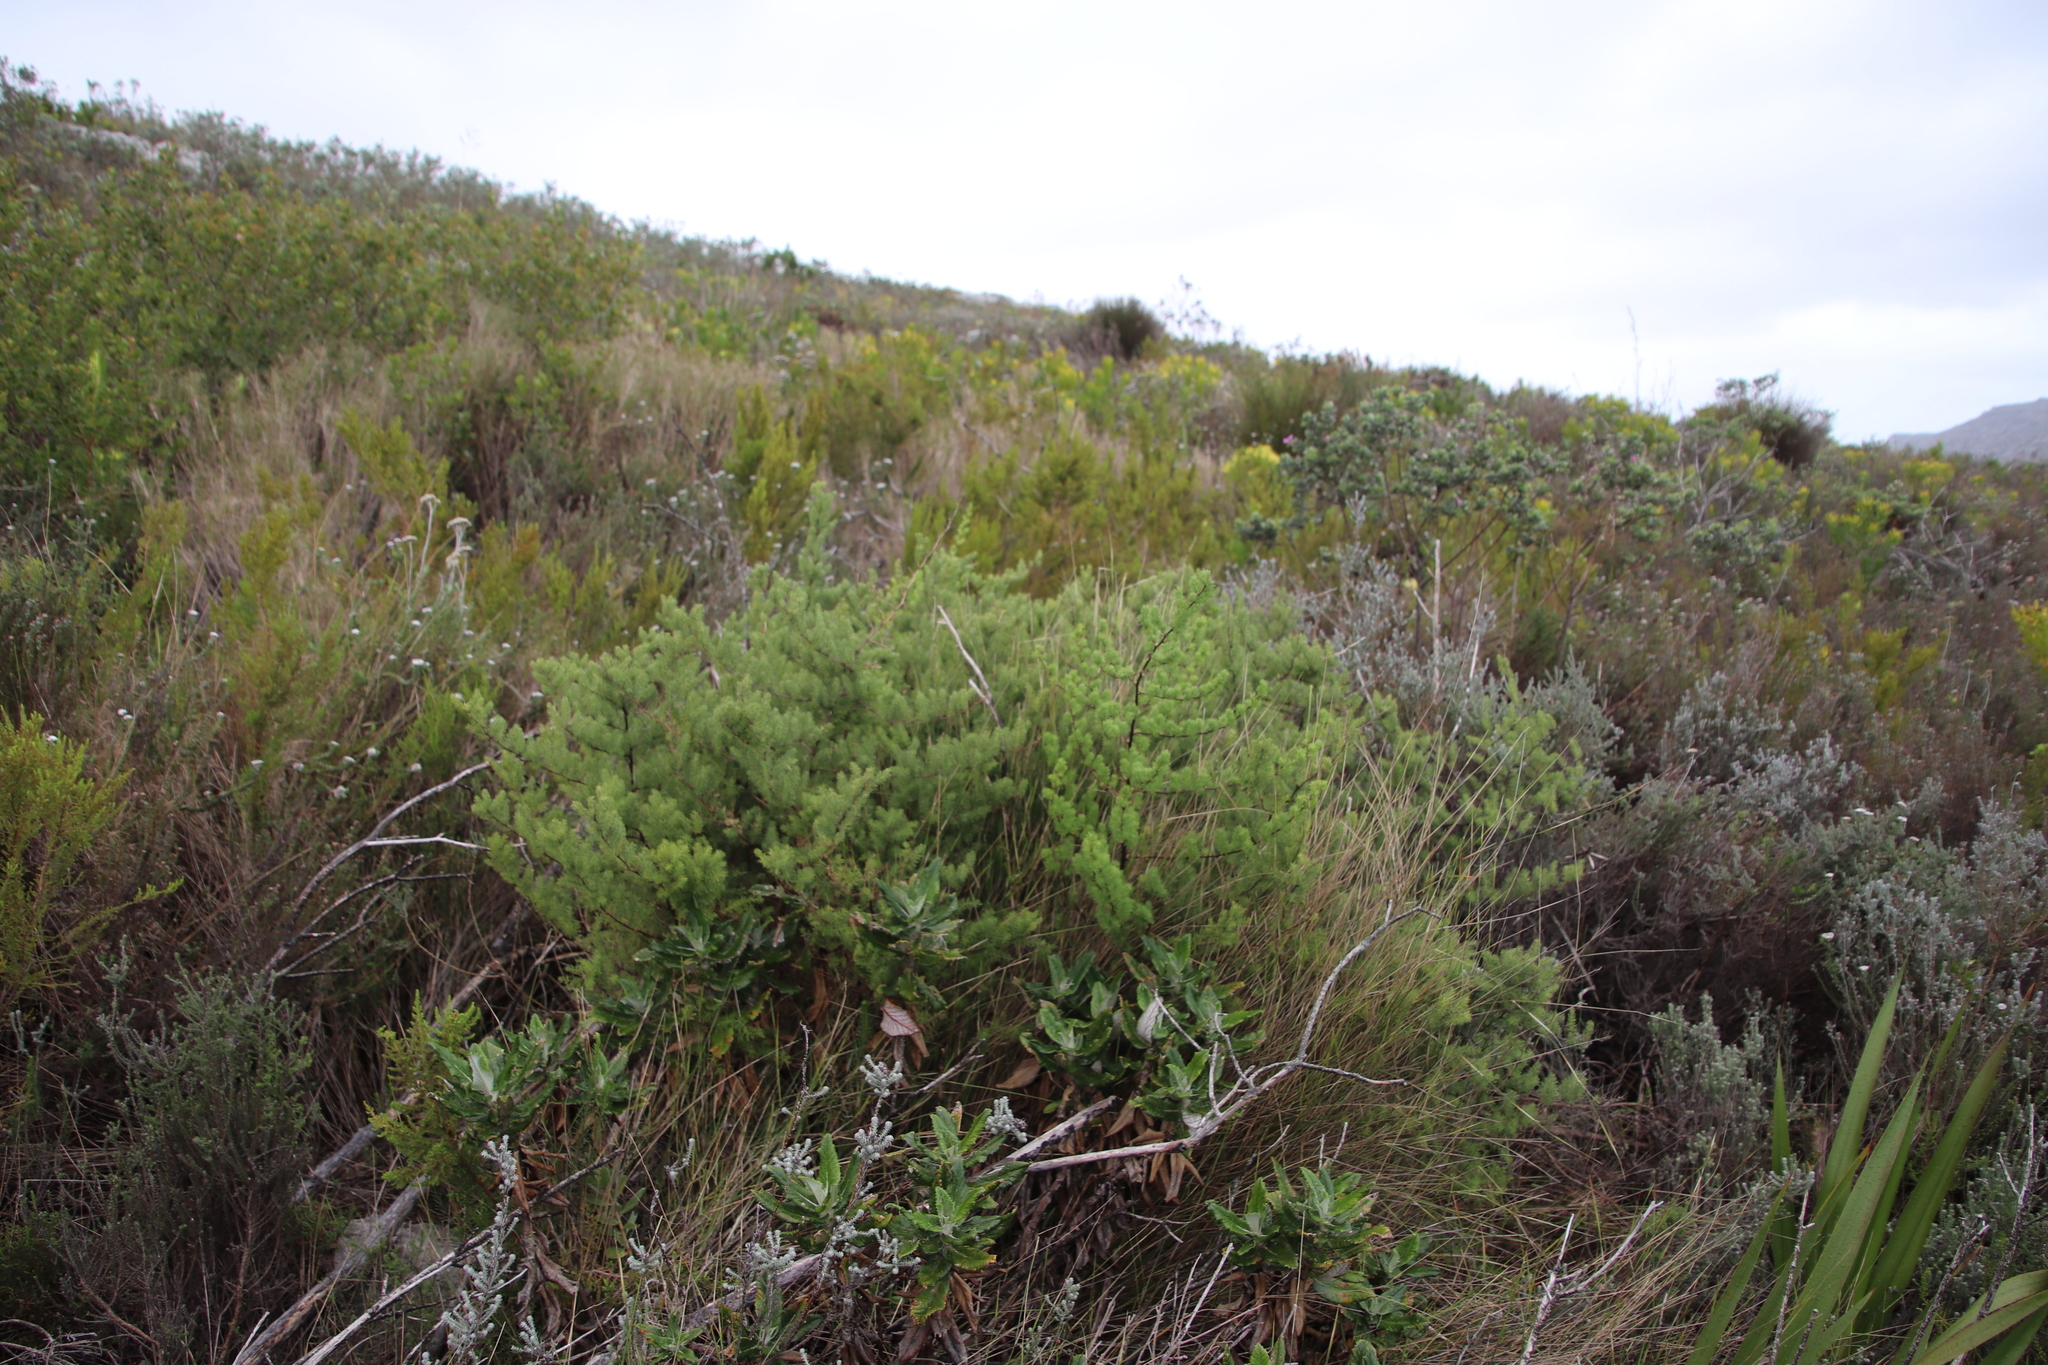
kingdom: Plantae
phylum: Tracheophyta
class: Liliopsida
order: Asparagales
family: Asparagaceae
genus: Asparagus
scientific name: Asparagus rubicundus
